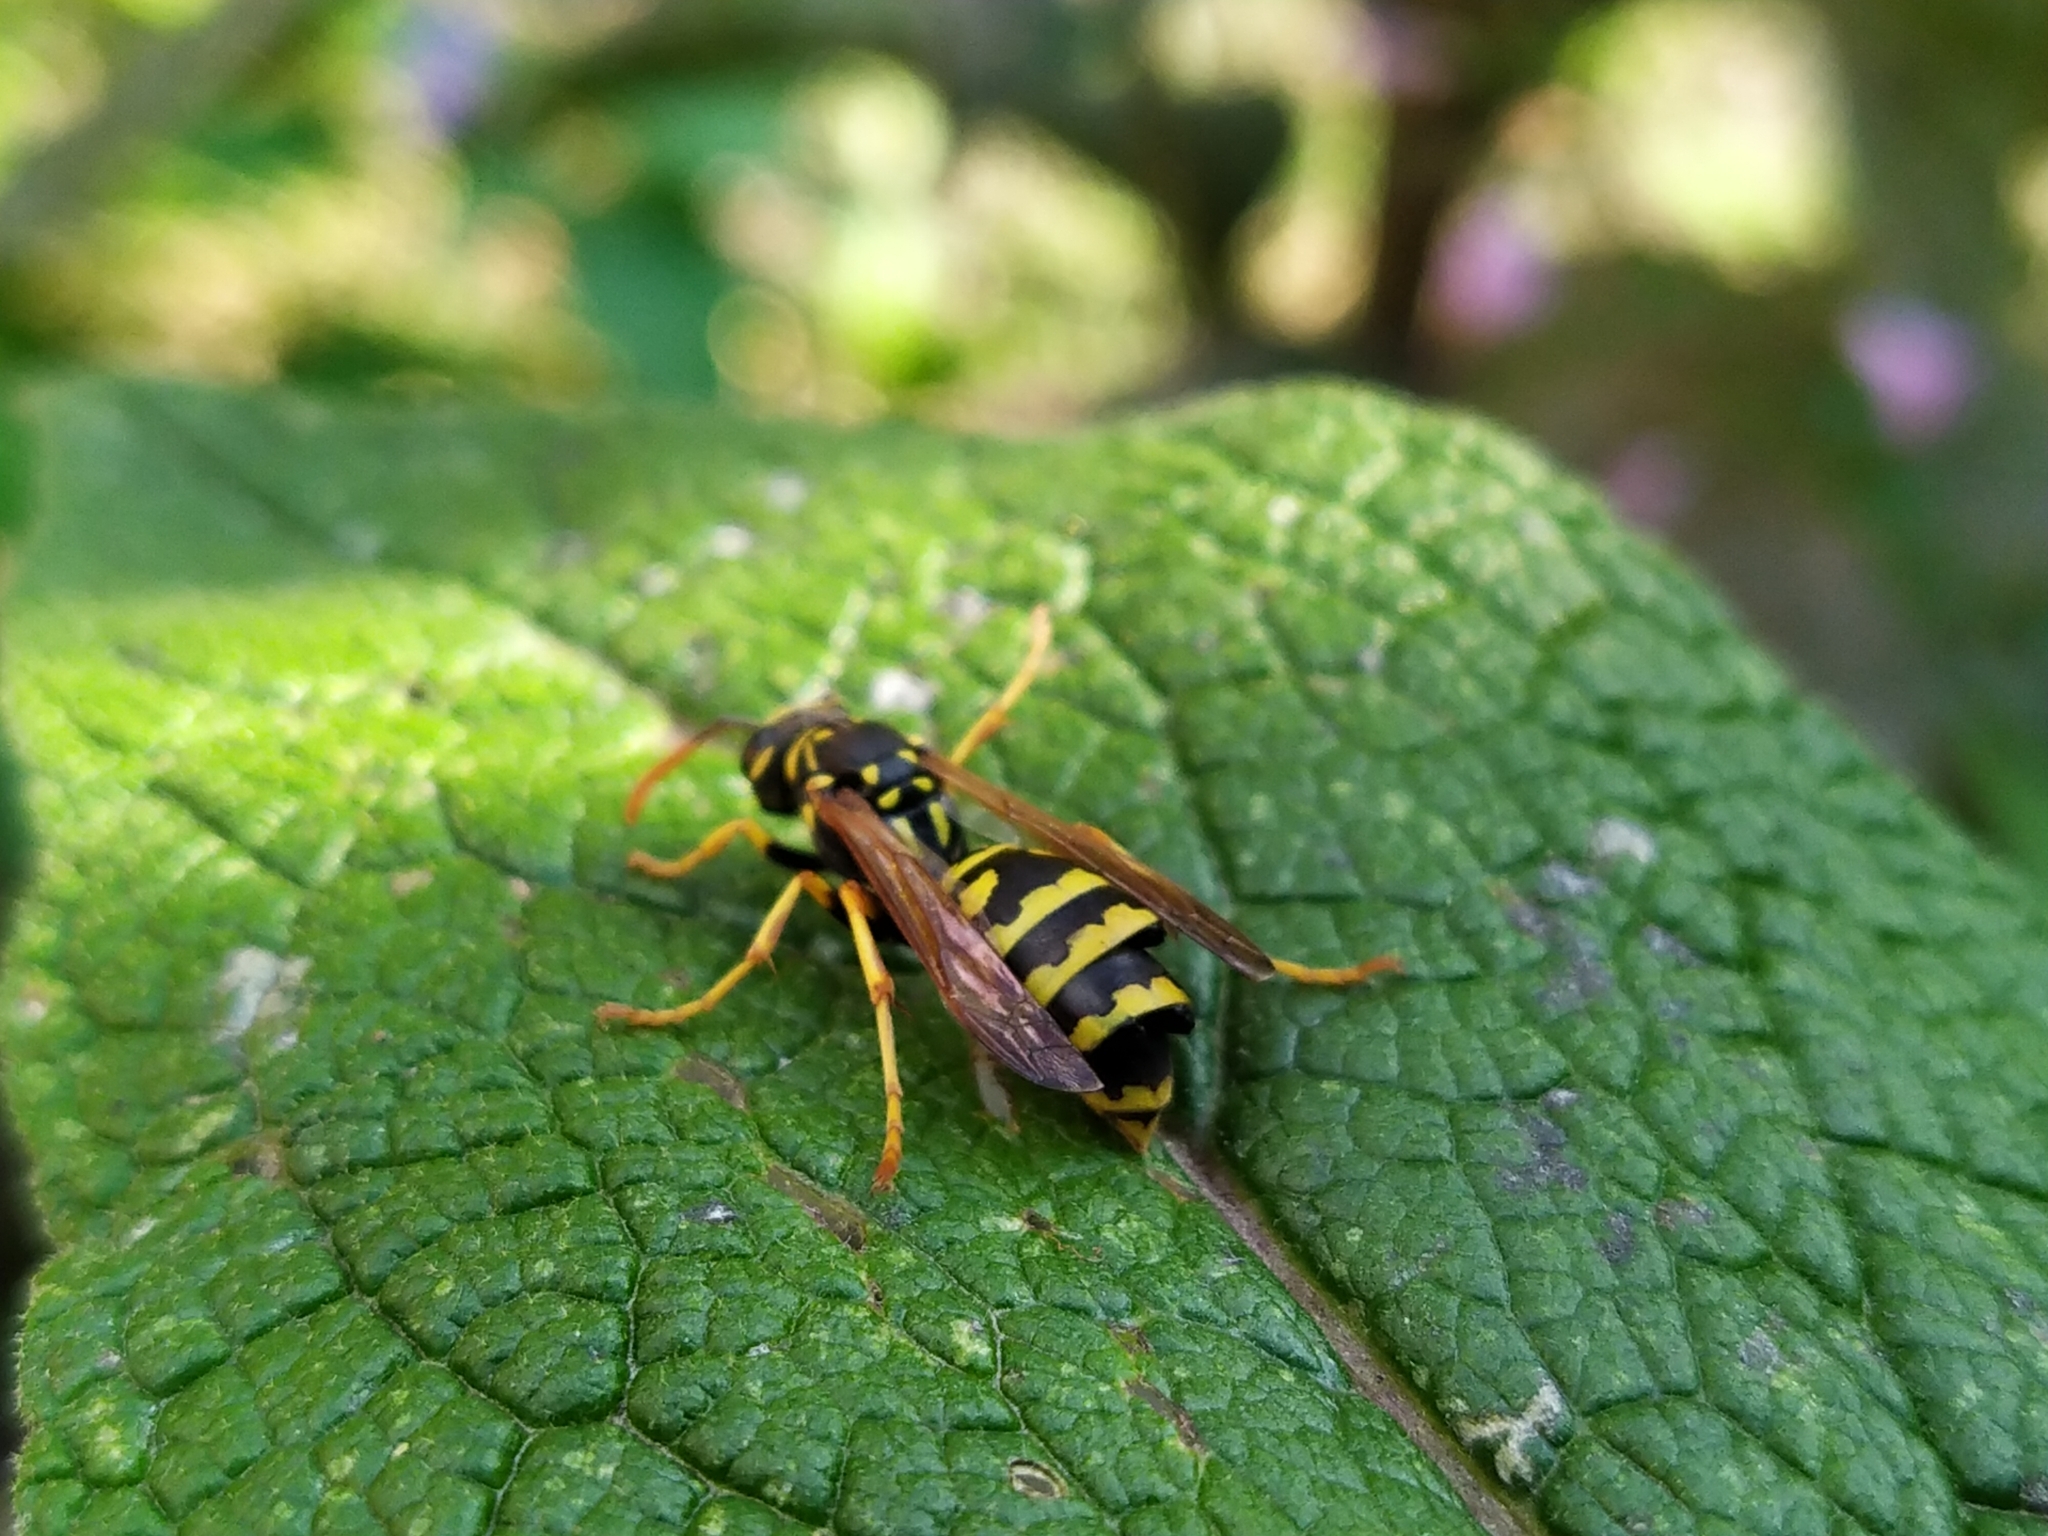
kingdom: Animalia
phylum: Arthropoda
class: Insecta
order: Strepsiptera
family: Xenidae
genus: Xenos
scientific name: Xenos vesparum
